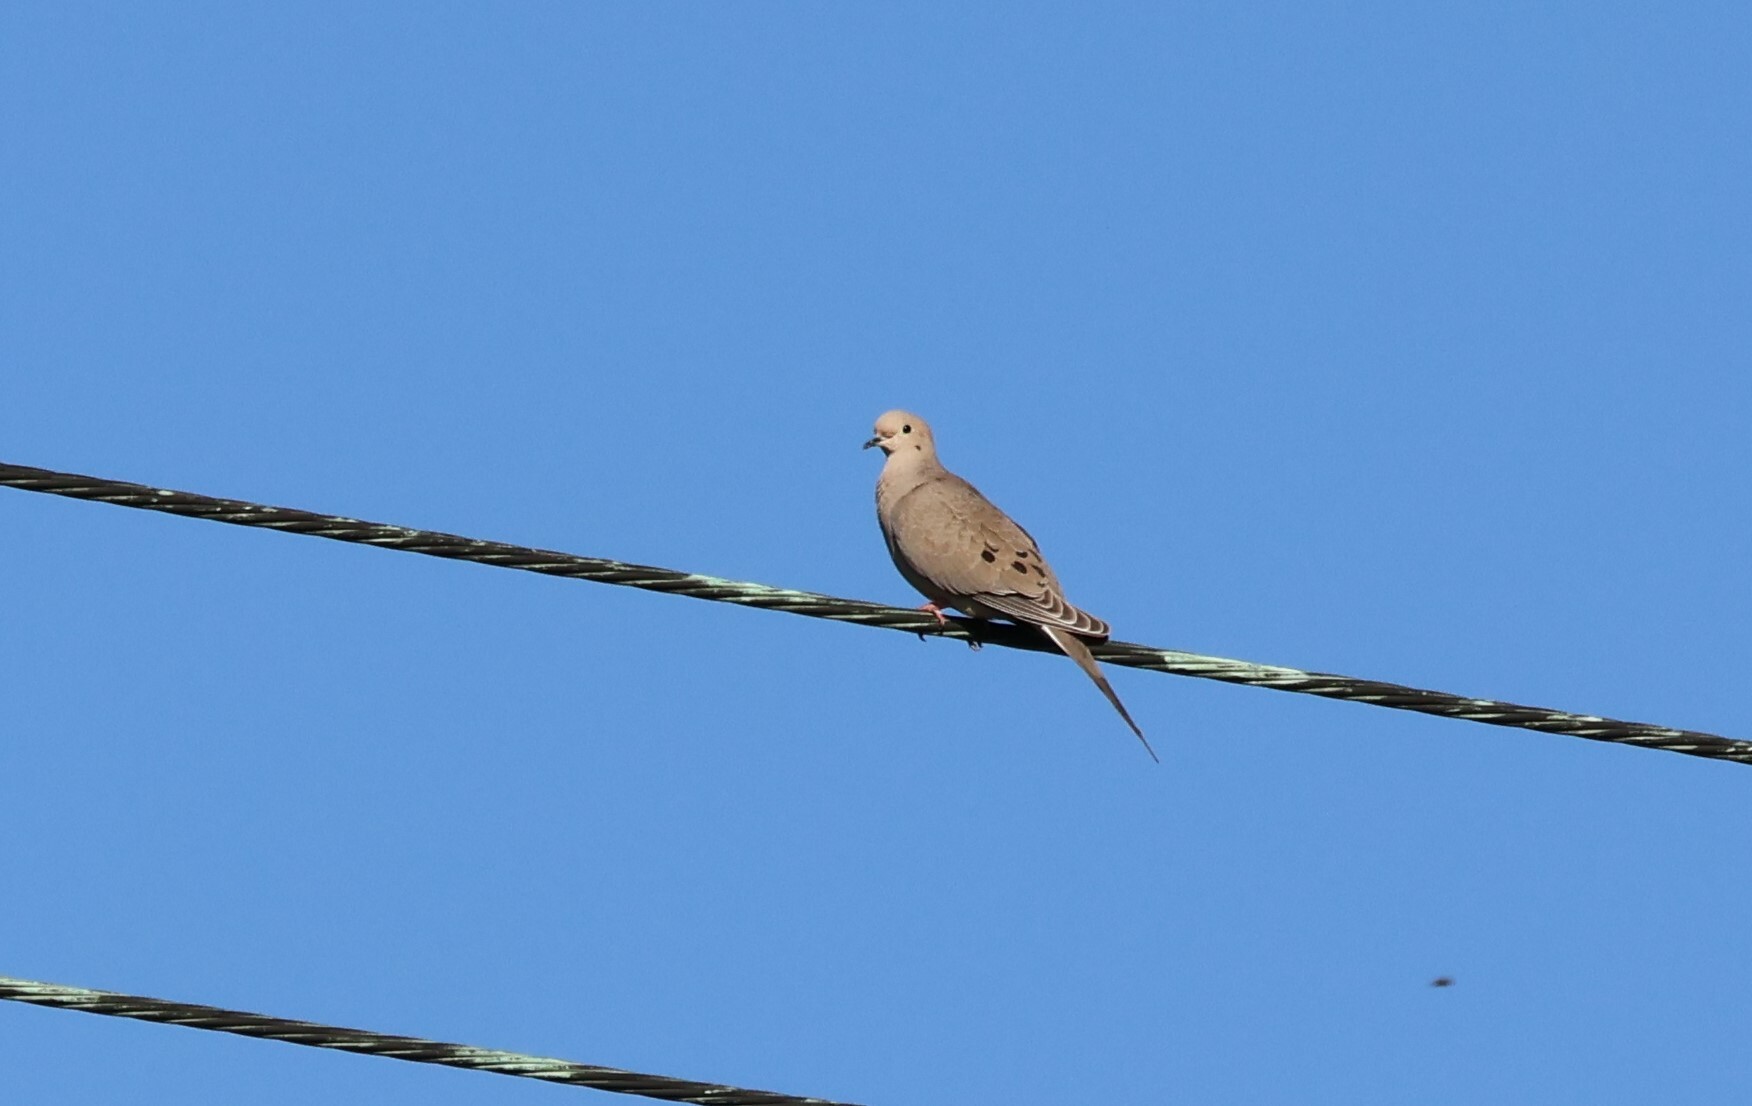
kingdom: Animalia
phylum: Chordata
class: Aves
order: Columbiformes
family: Columbidae
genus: Zenaida
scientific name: Zenaida macroura
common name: Mourning dove
